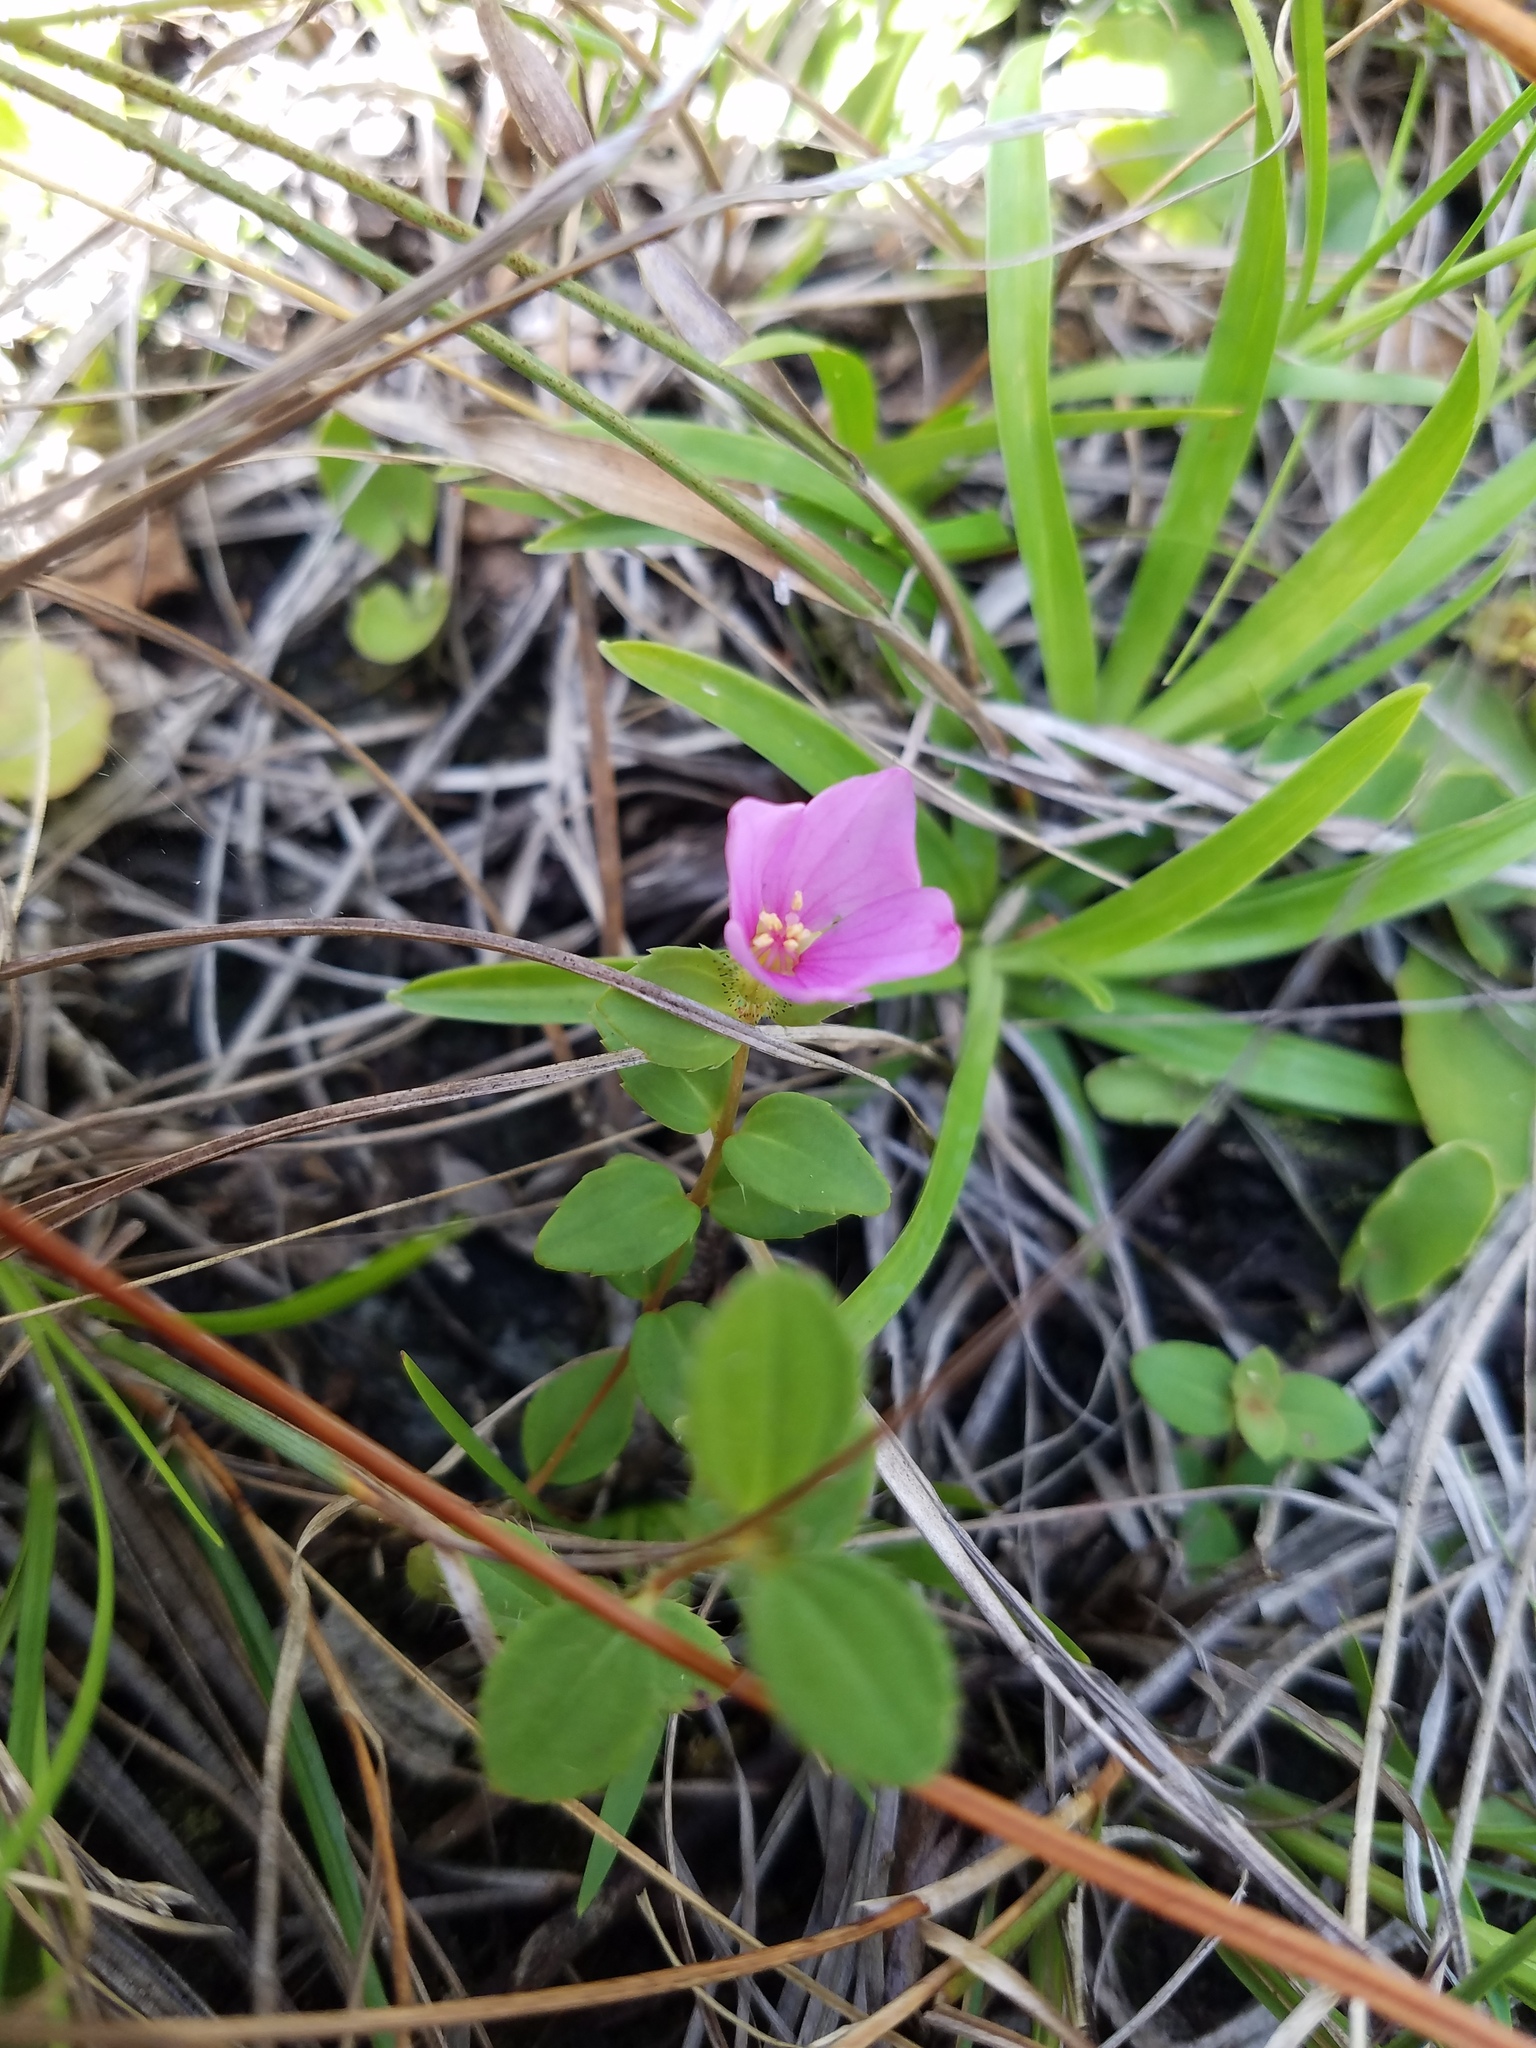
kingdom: Plantae
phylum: Tracheophyta
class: Magnoliopsida
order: Myrtales
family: Melastomataceae
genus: Rhexia
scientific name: Rhexia nuttallii
